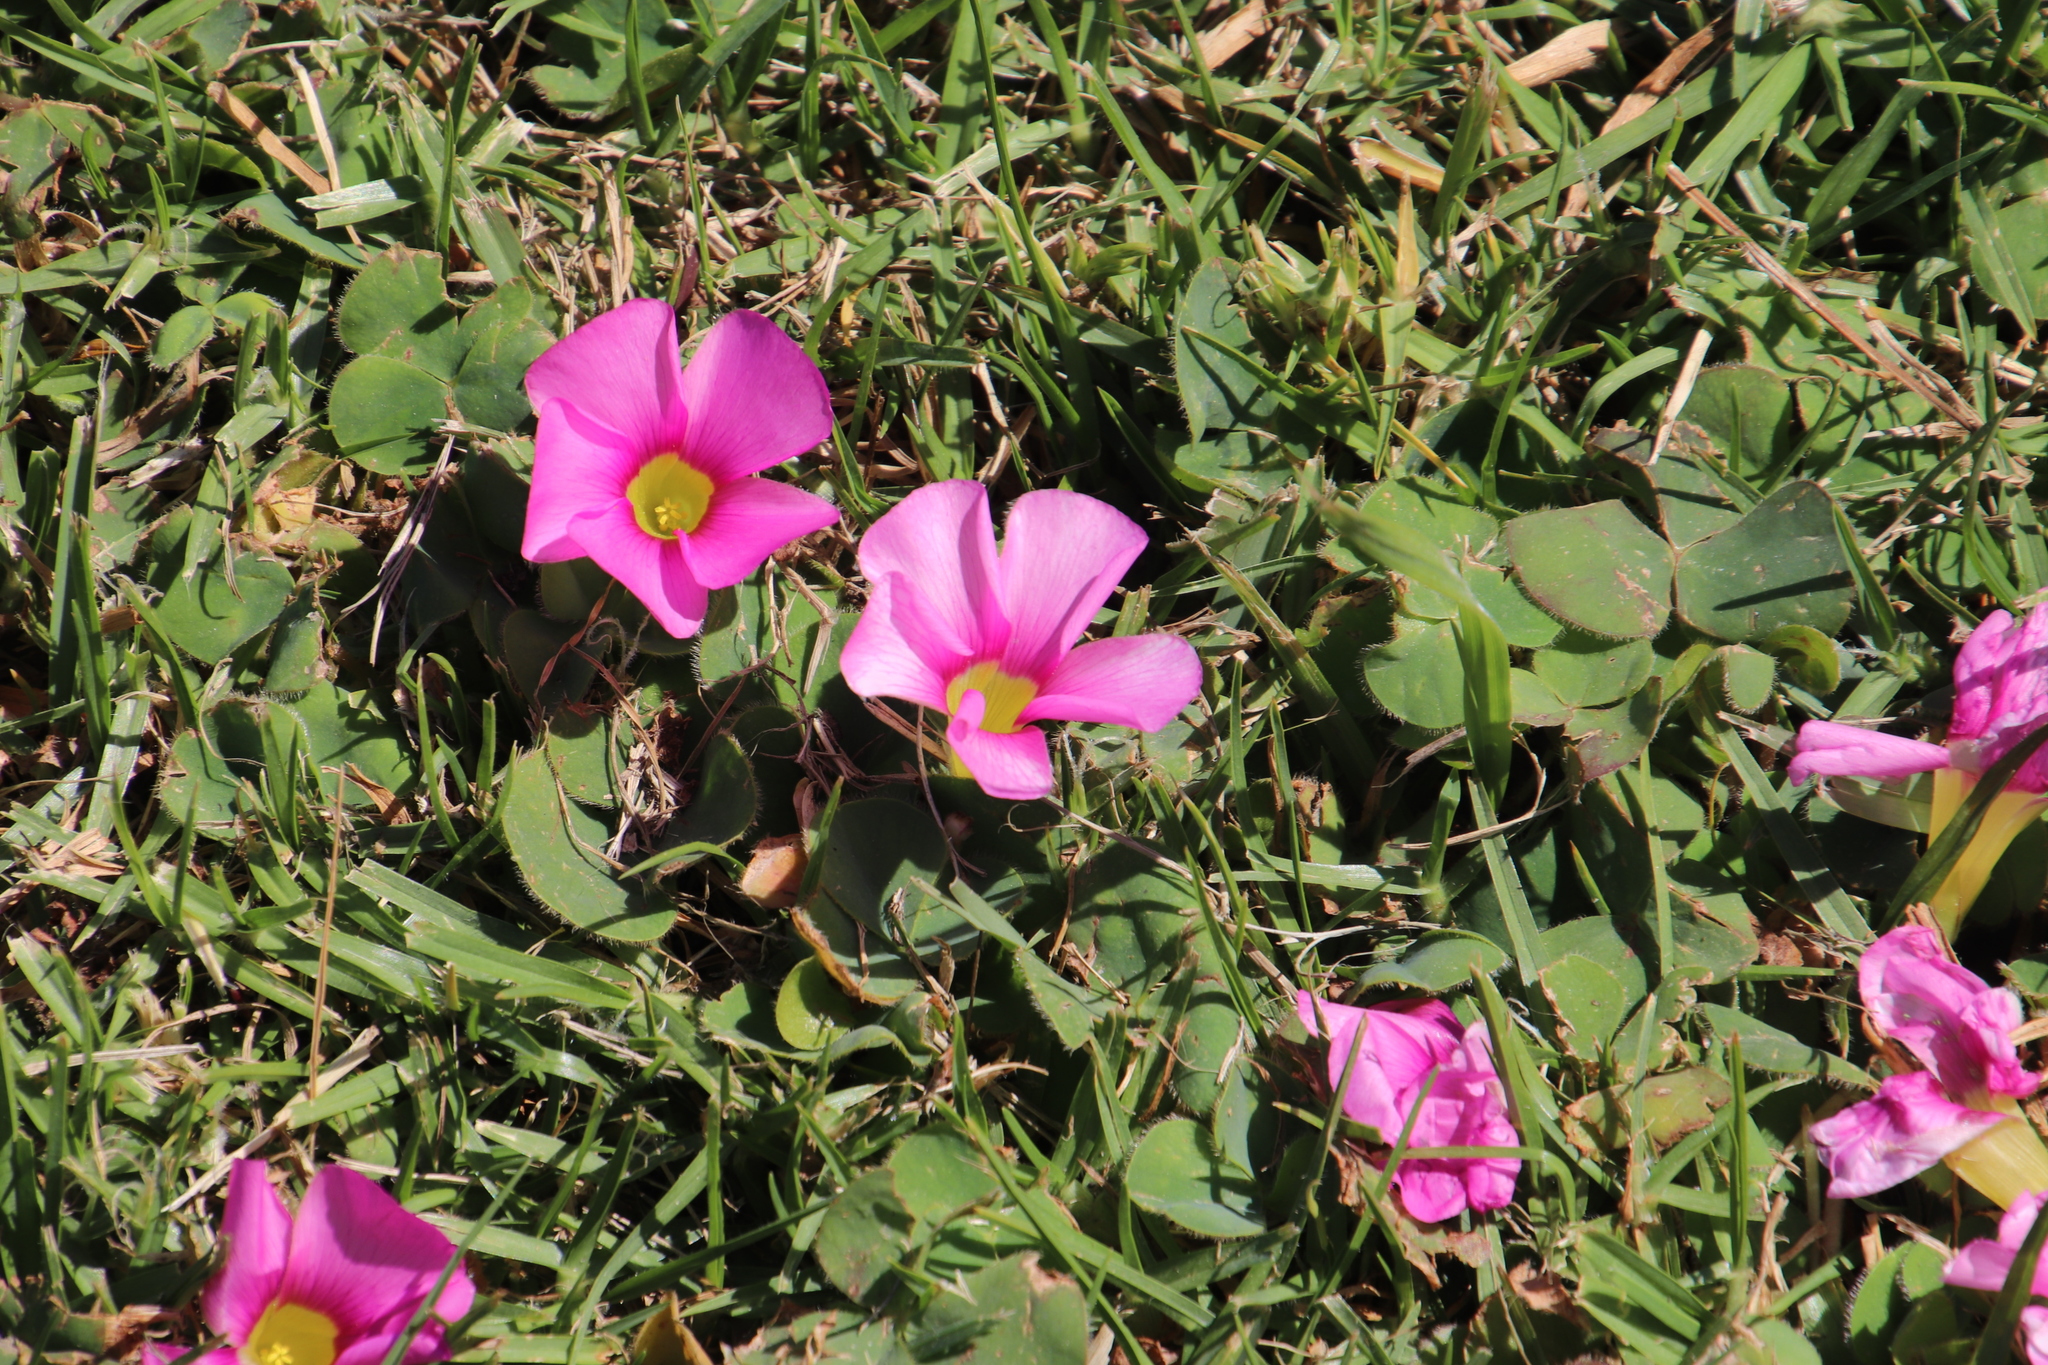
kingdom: Plantae
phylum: Tracheophyta
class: Magnoliopsida
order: Oxalidales
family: Oxalidaceae
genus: Oxalis
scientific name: Oxalis purpurea
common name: Purple woodsorrel
